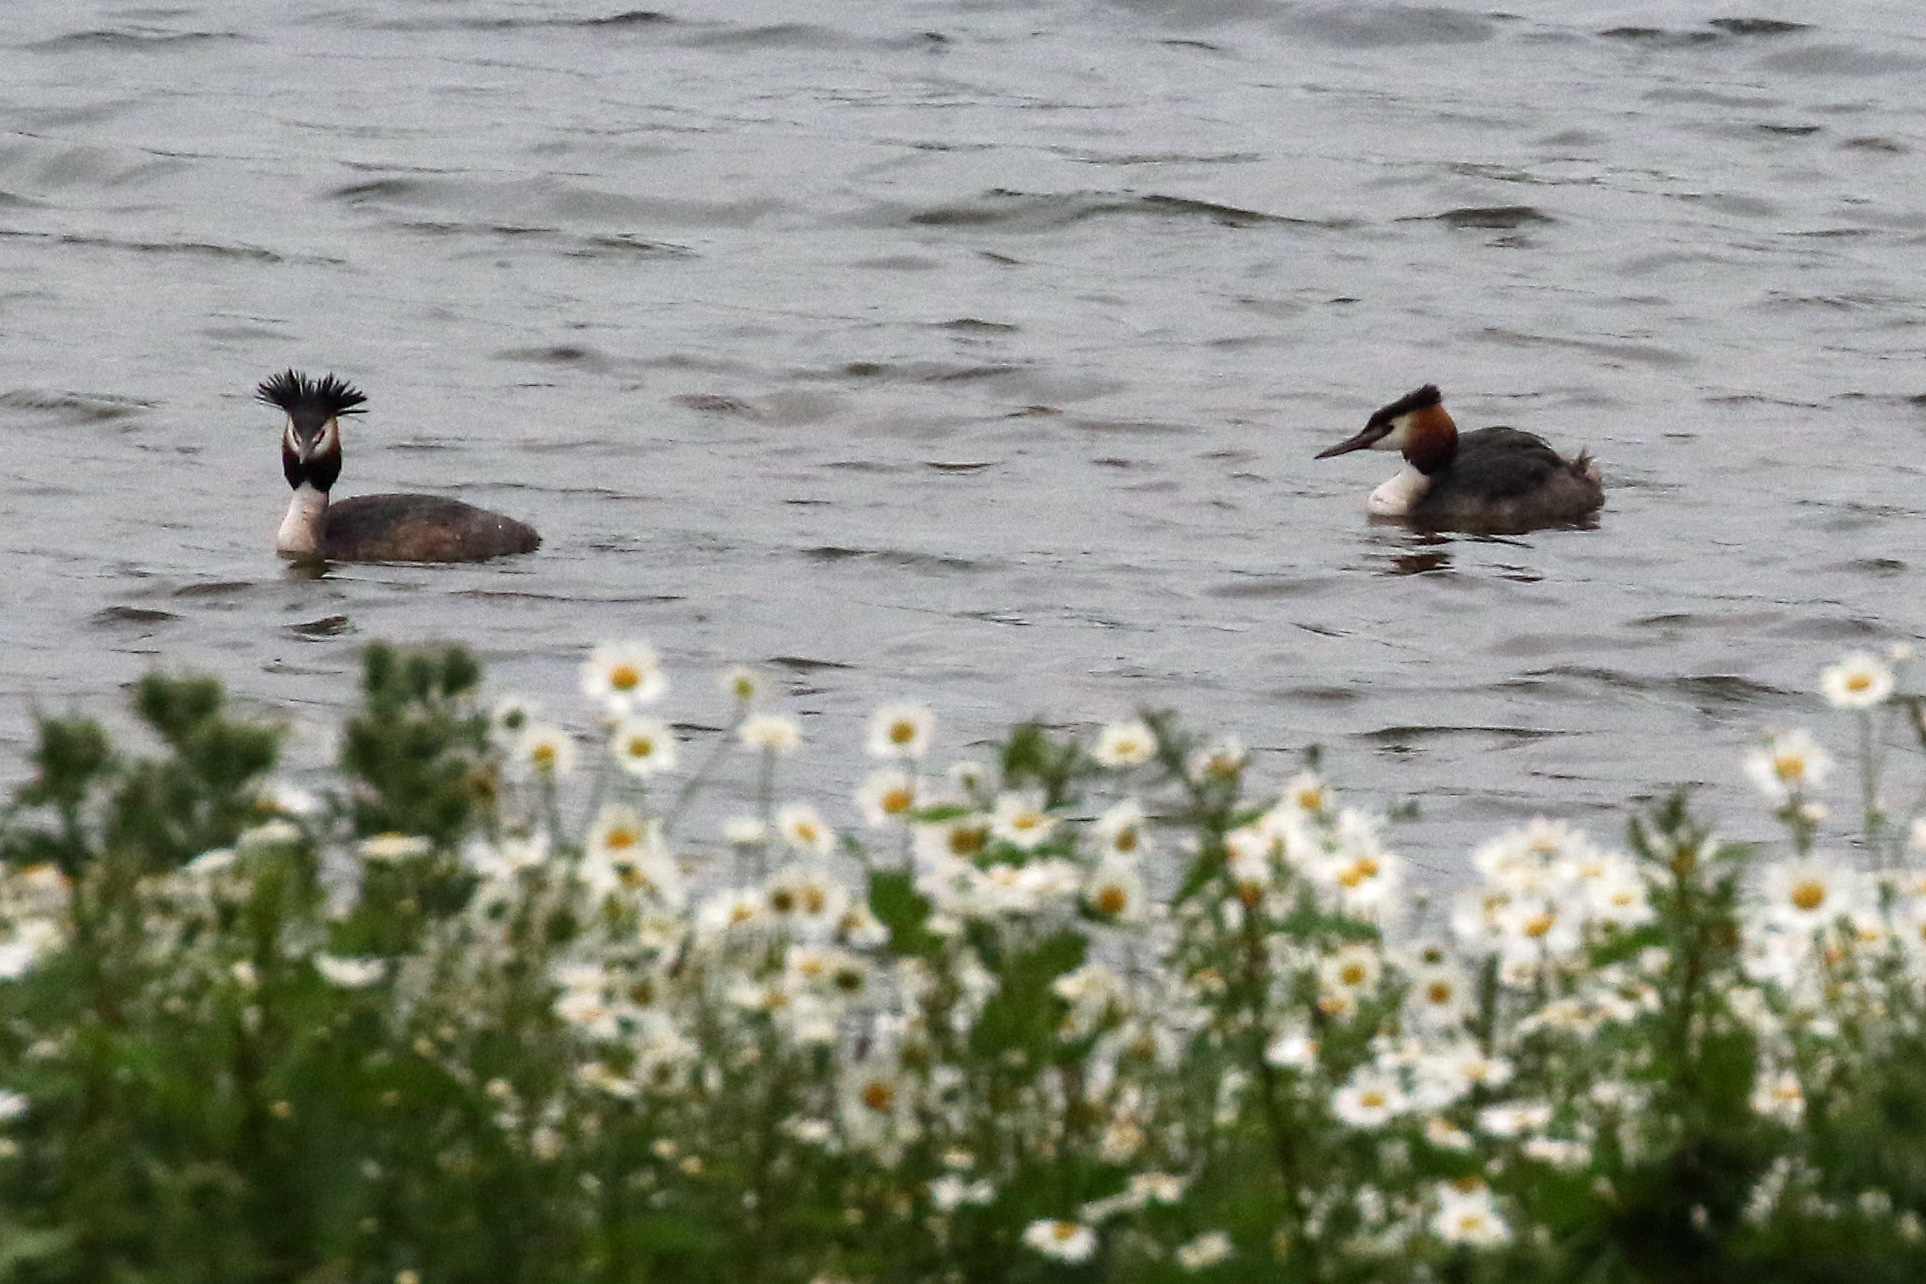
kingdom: Animalia
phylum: Chordata
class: Aves
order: Podicipediformes
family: Podicipedidae
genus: Podiceps
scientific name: Podiceps cristatus
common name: Great crested grebe
